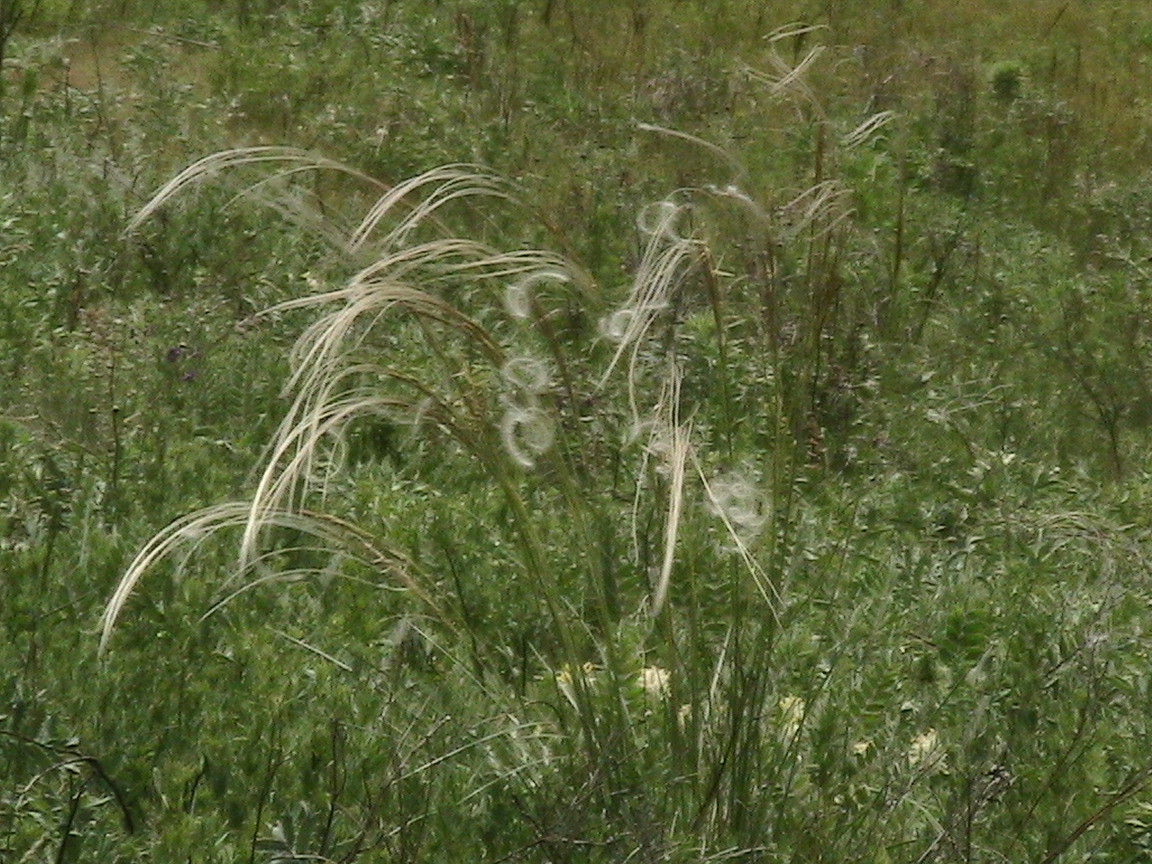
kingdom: Plantae
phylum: Tracheophyta
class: Liliopsida
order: Poales
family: Poaceae
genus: Stipa
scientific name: Stipa pennata
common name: European feather grass
